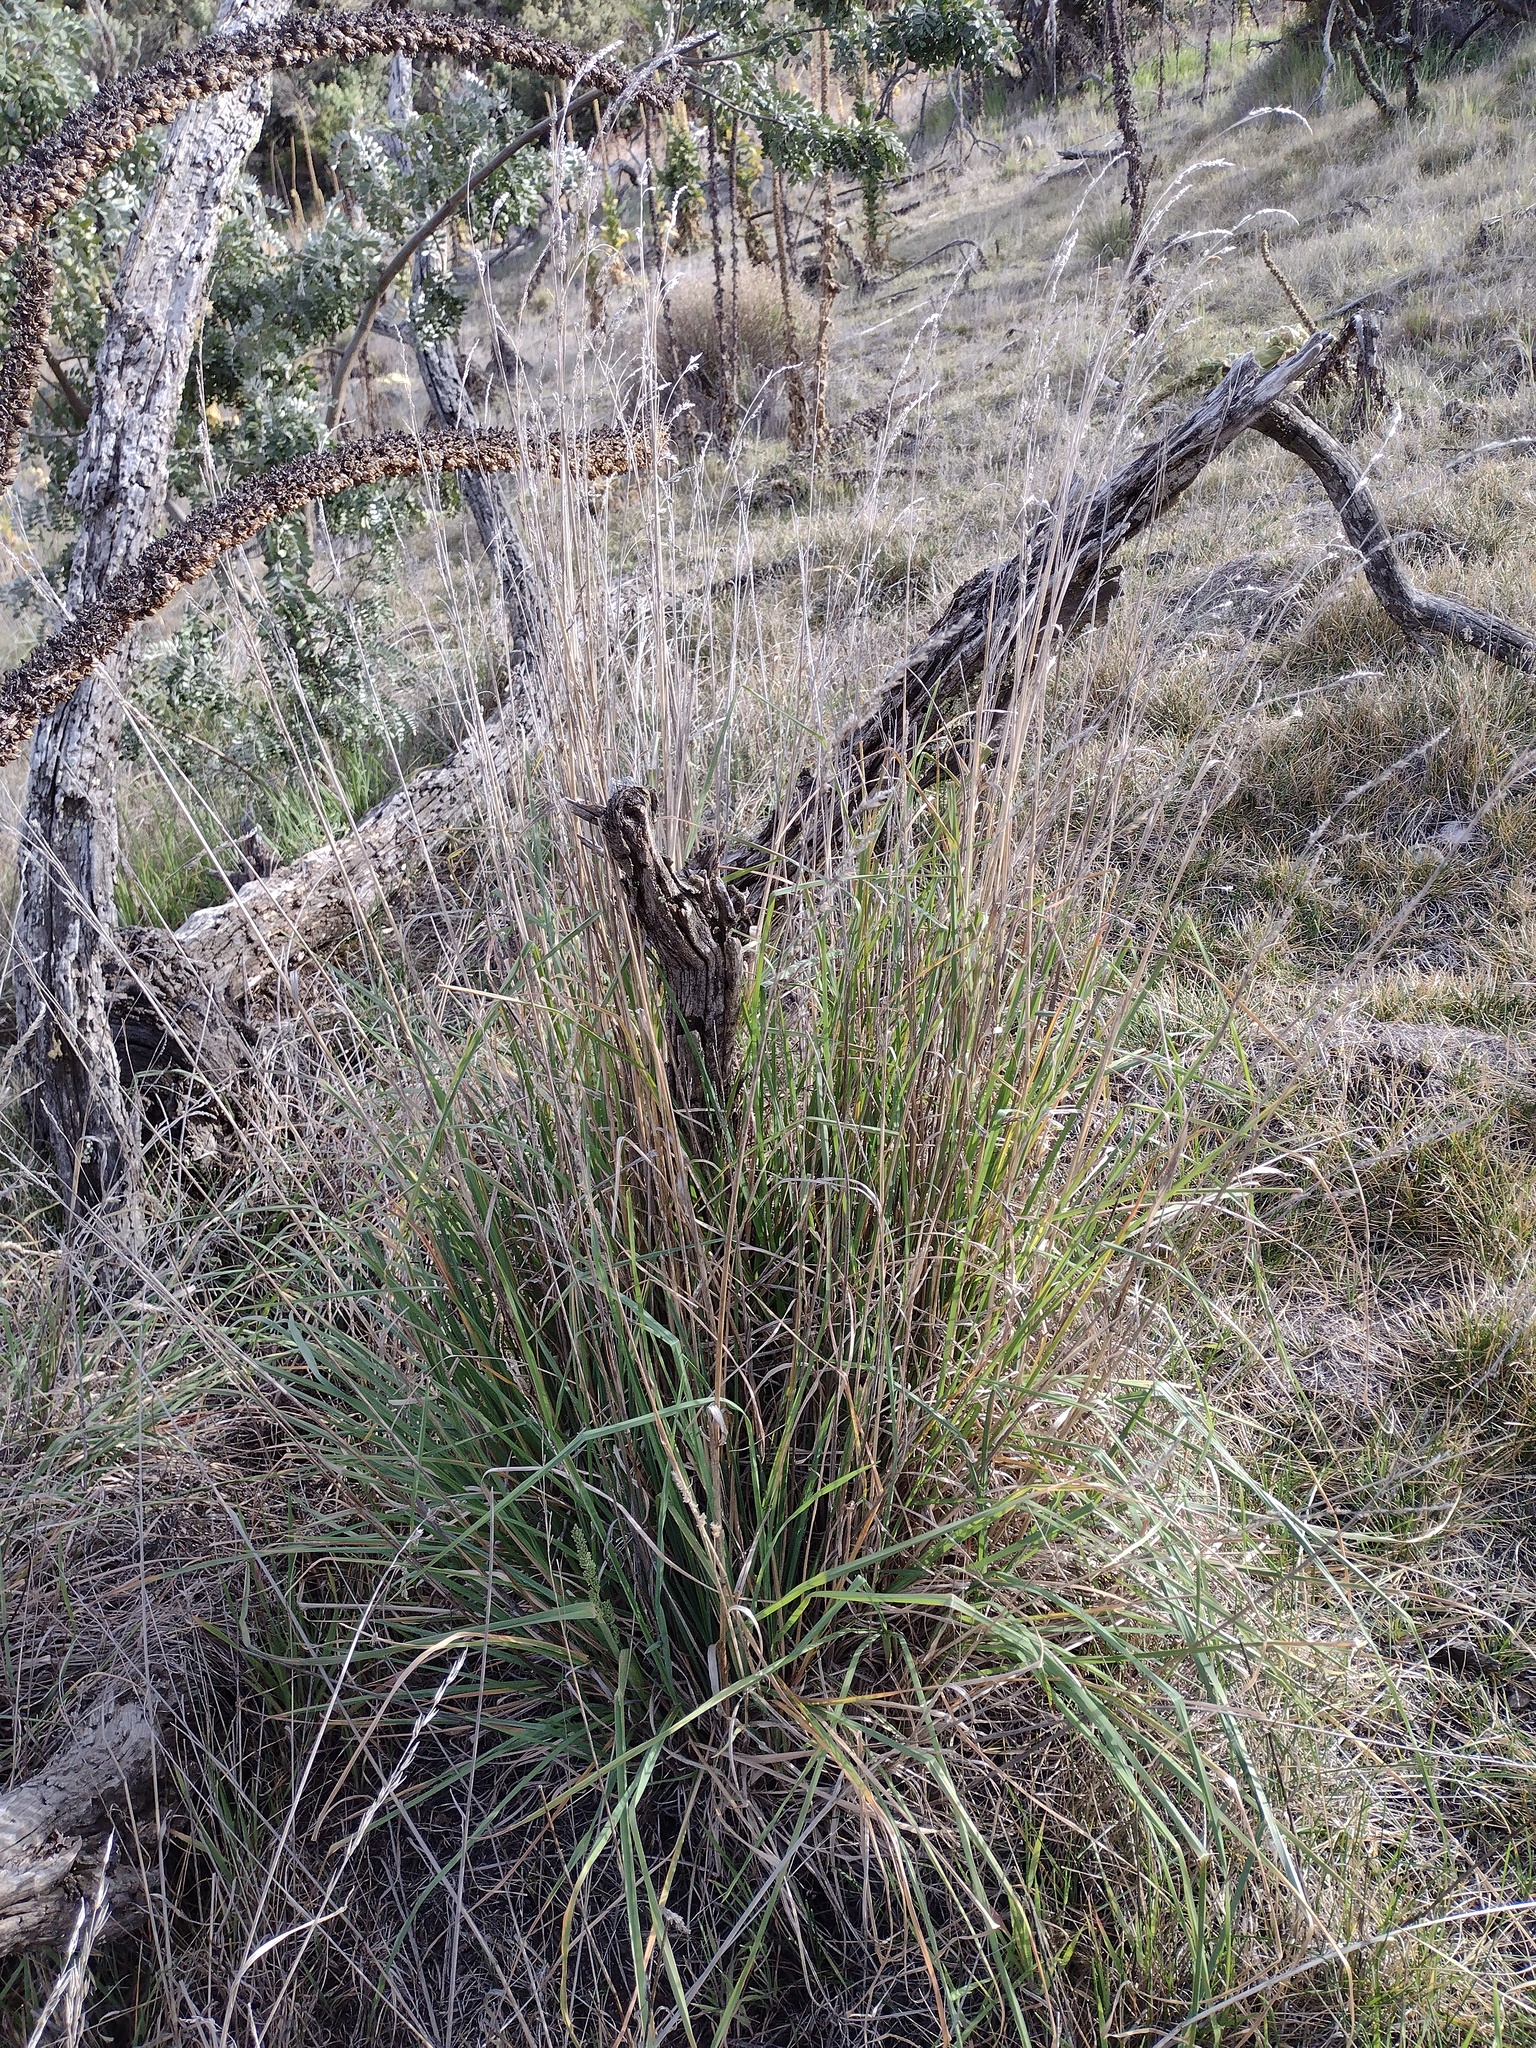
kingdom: Plantae
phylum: Tracheophyta
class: Liliopsida
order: Poales
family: Poaceae
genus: Dactylis
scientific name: Dactylis glomerata
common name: Orchardgrass
